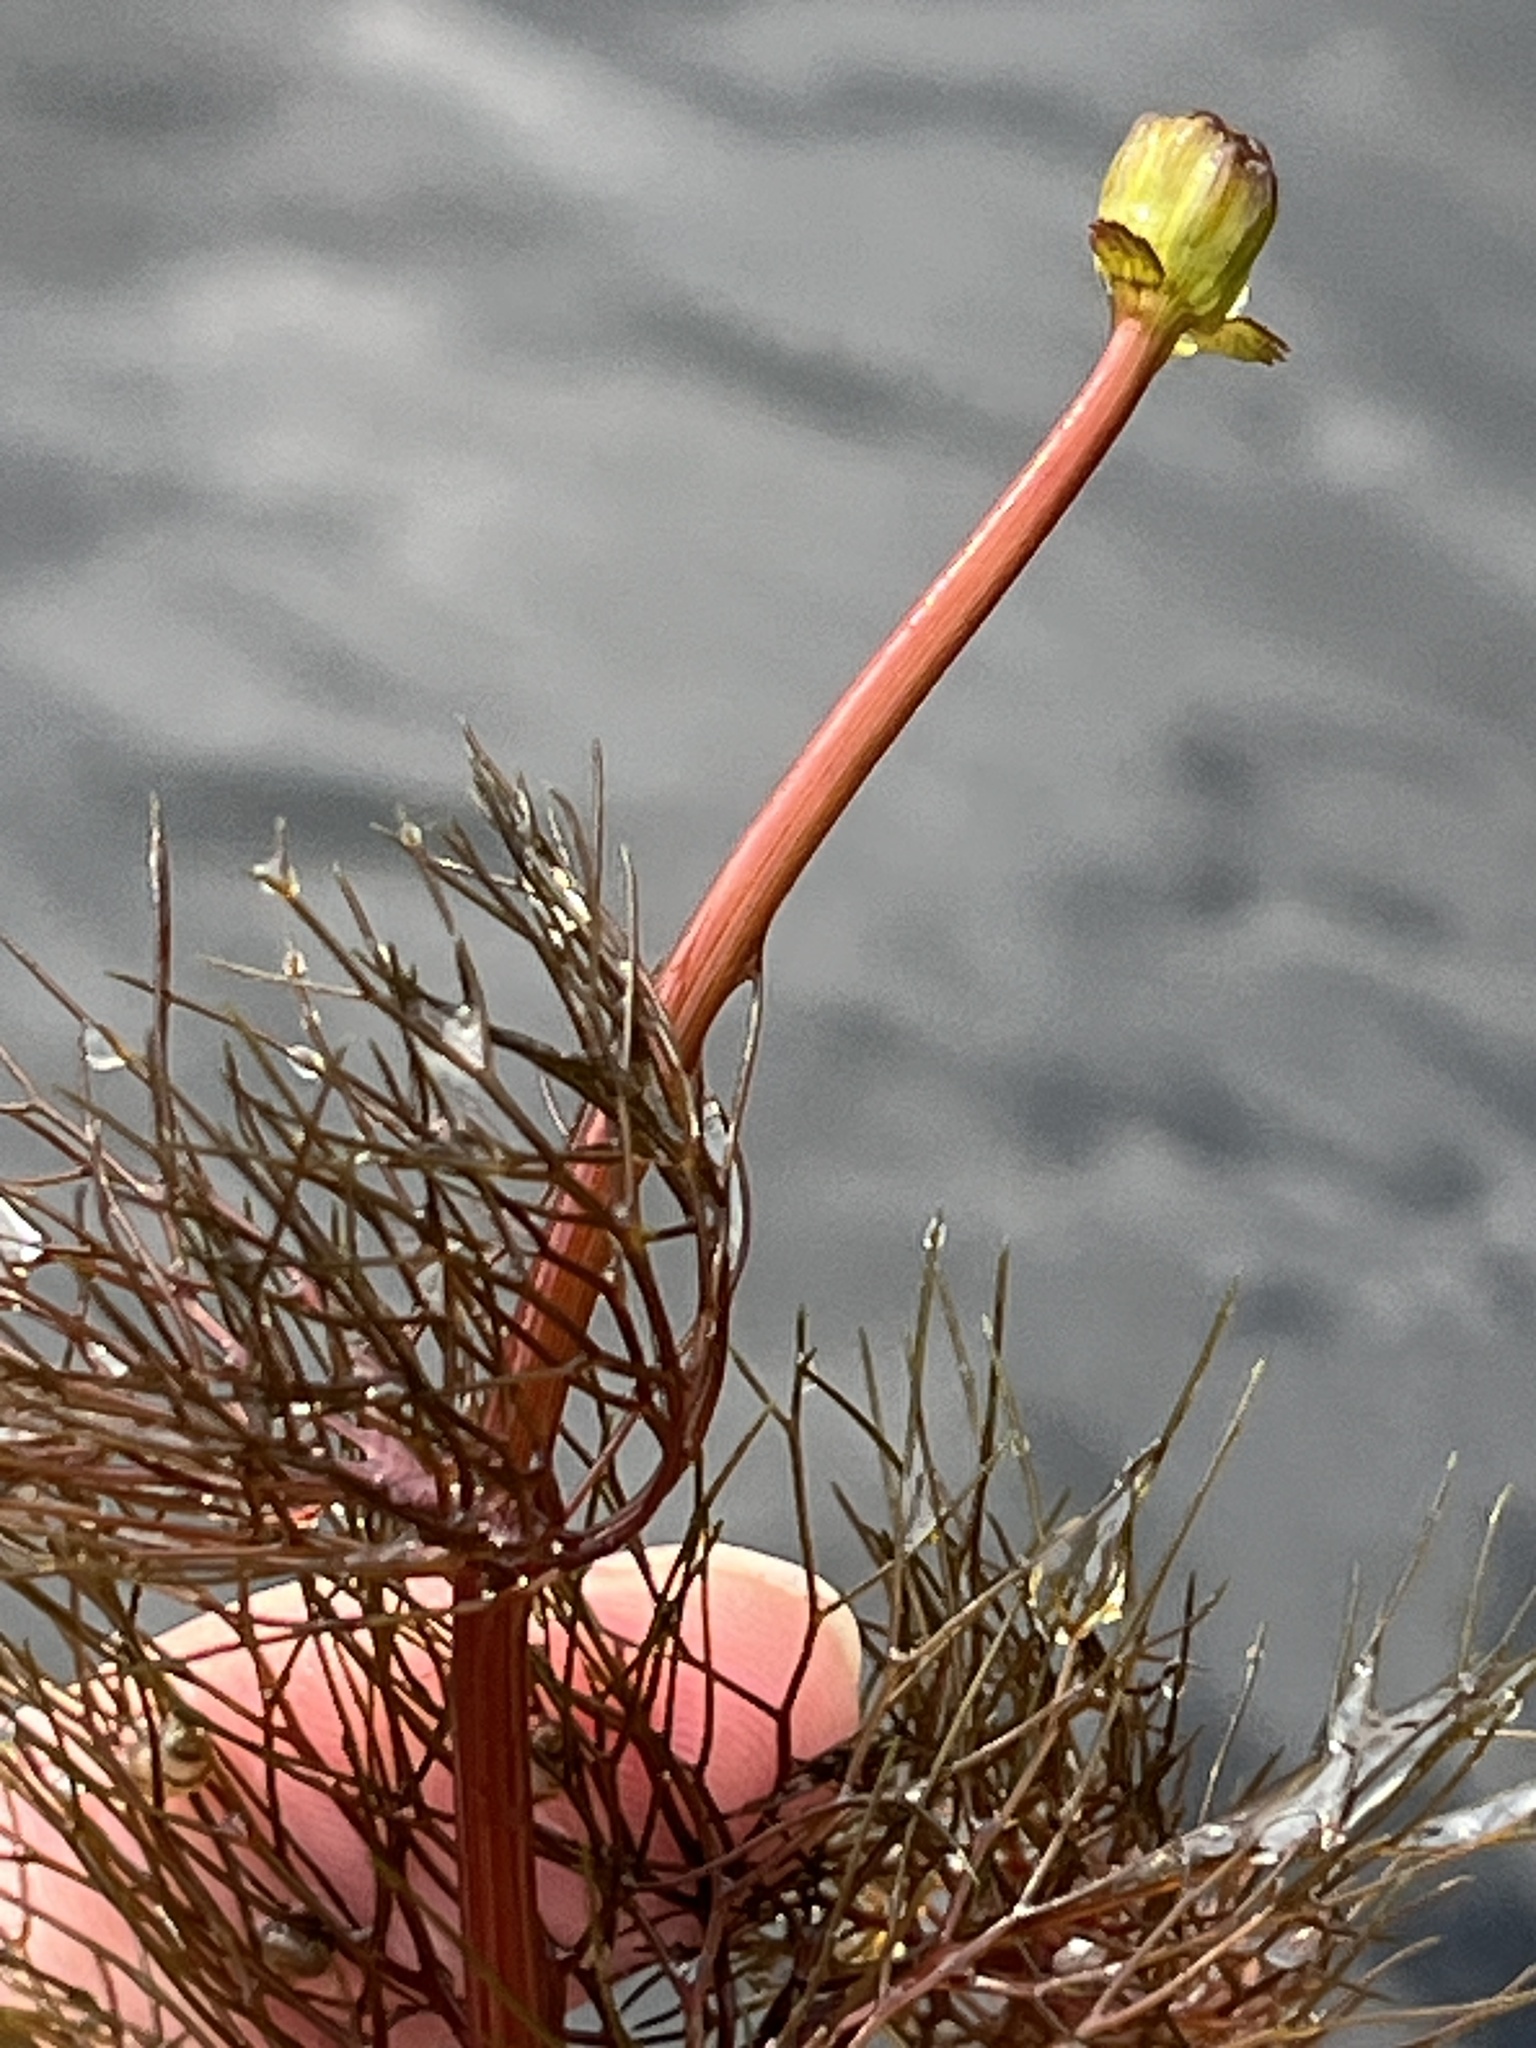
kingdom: Plantae
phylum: Tracheophyta
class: Magnoliopsida
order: Asterales
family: Asteraceae
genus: Bidens
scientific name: Bidens beckii
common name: Beck's beggarticks
